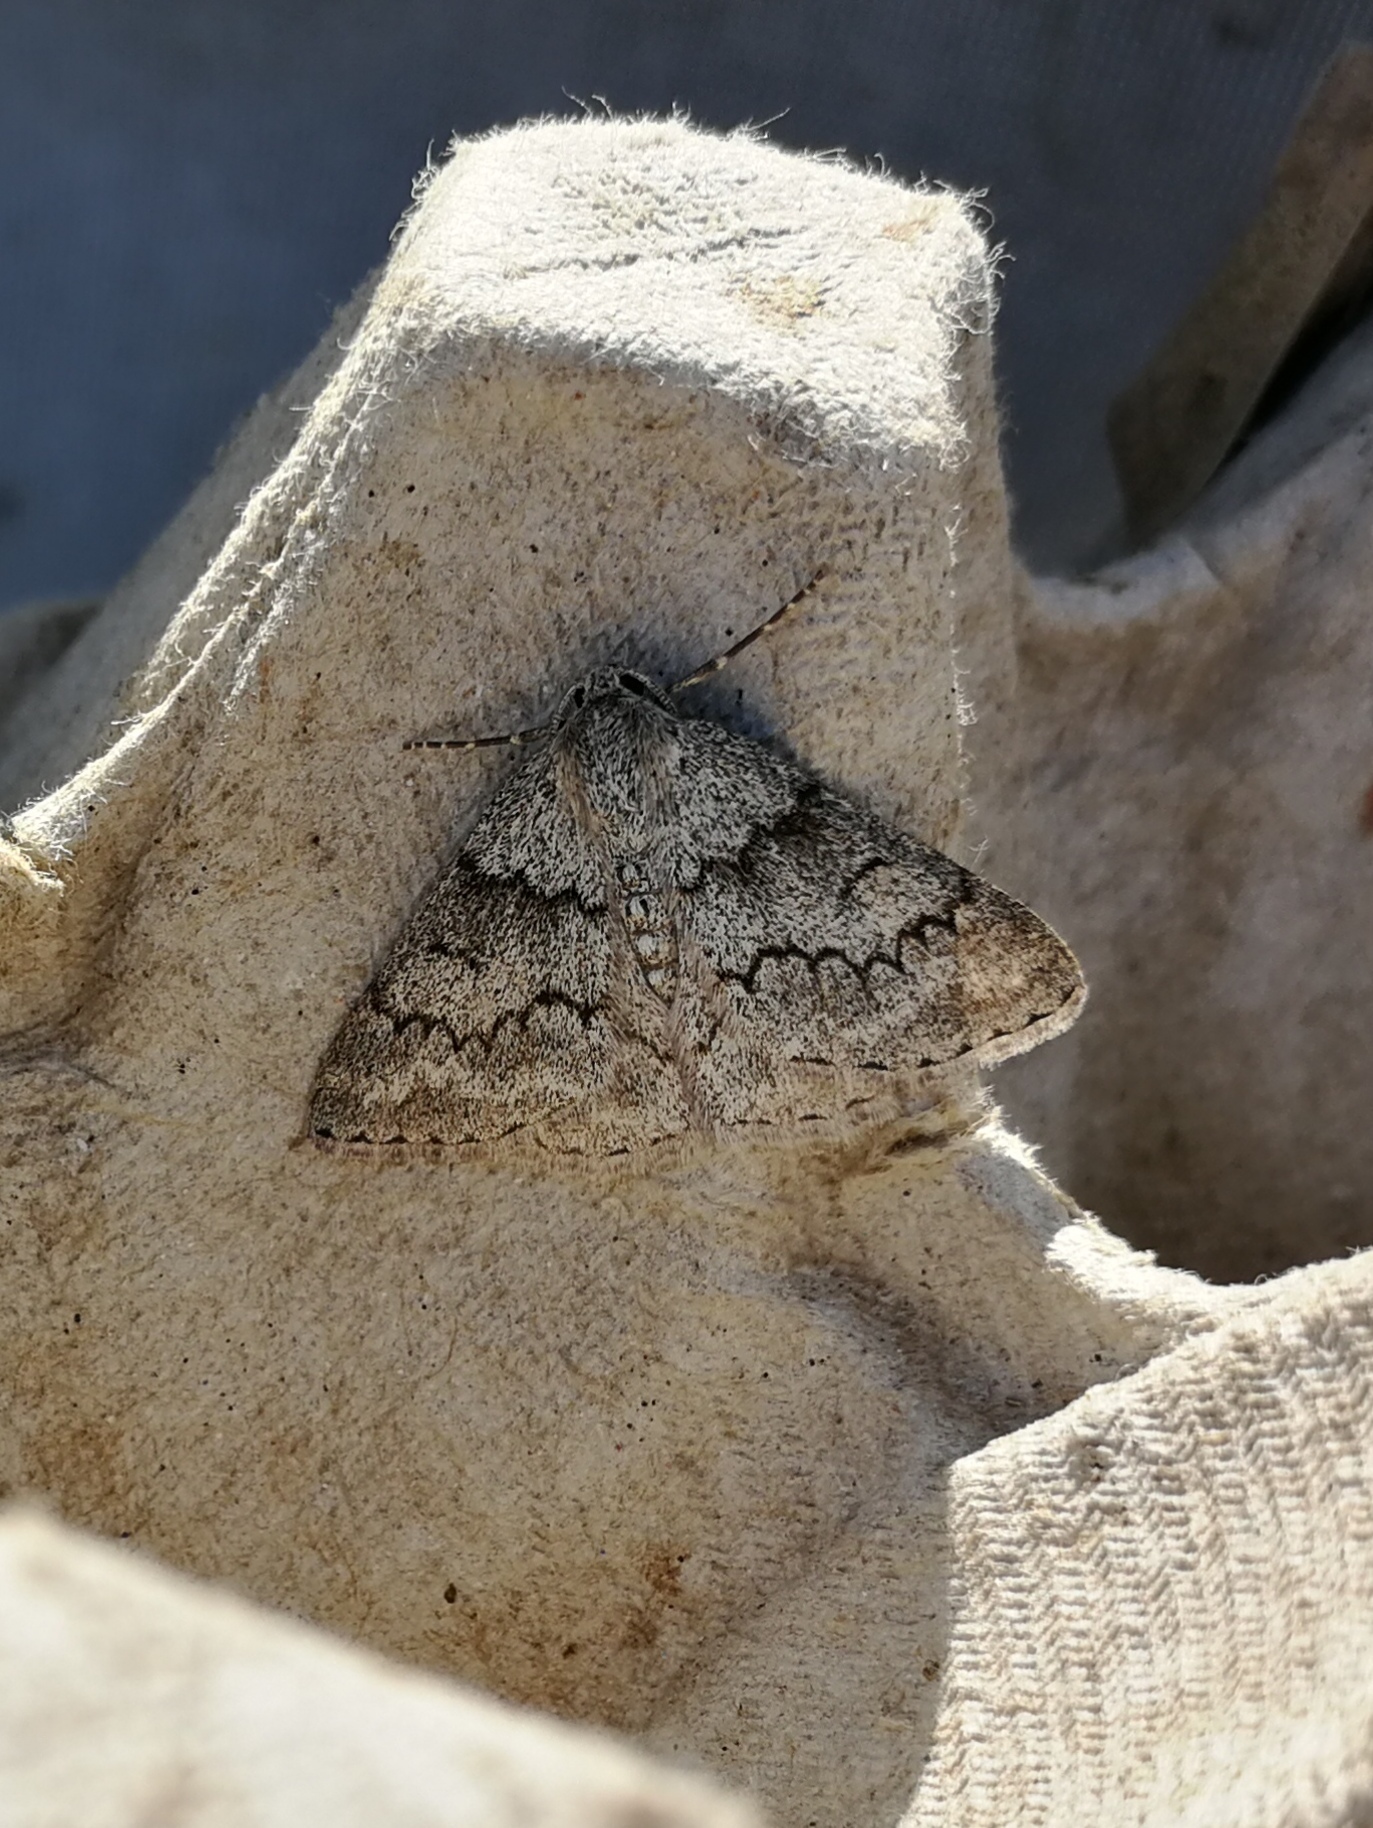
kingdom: Animalia
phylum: Arthropoda
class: Insecta
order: Lepidoptera
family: Geometridae
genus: Pseudoterpna
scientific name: Pseudoterpna coronillaria
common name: Jersey emerald
